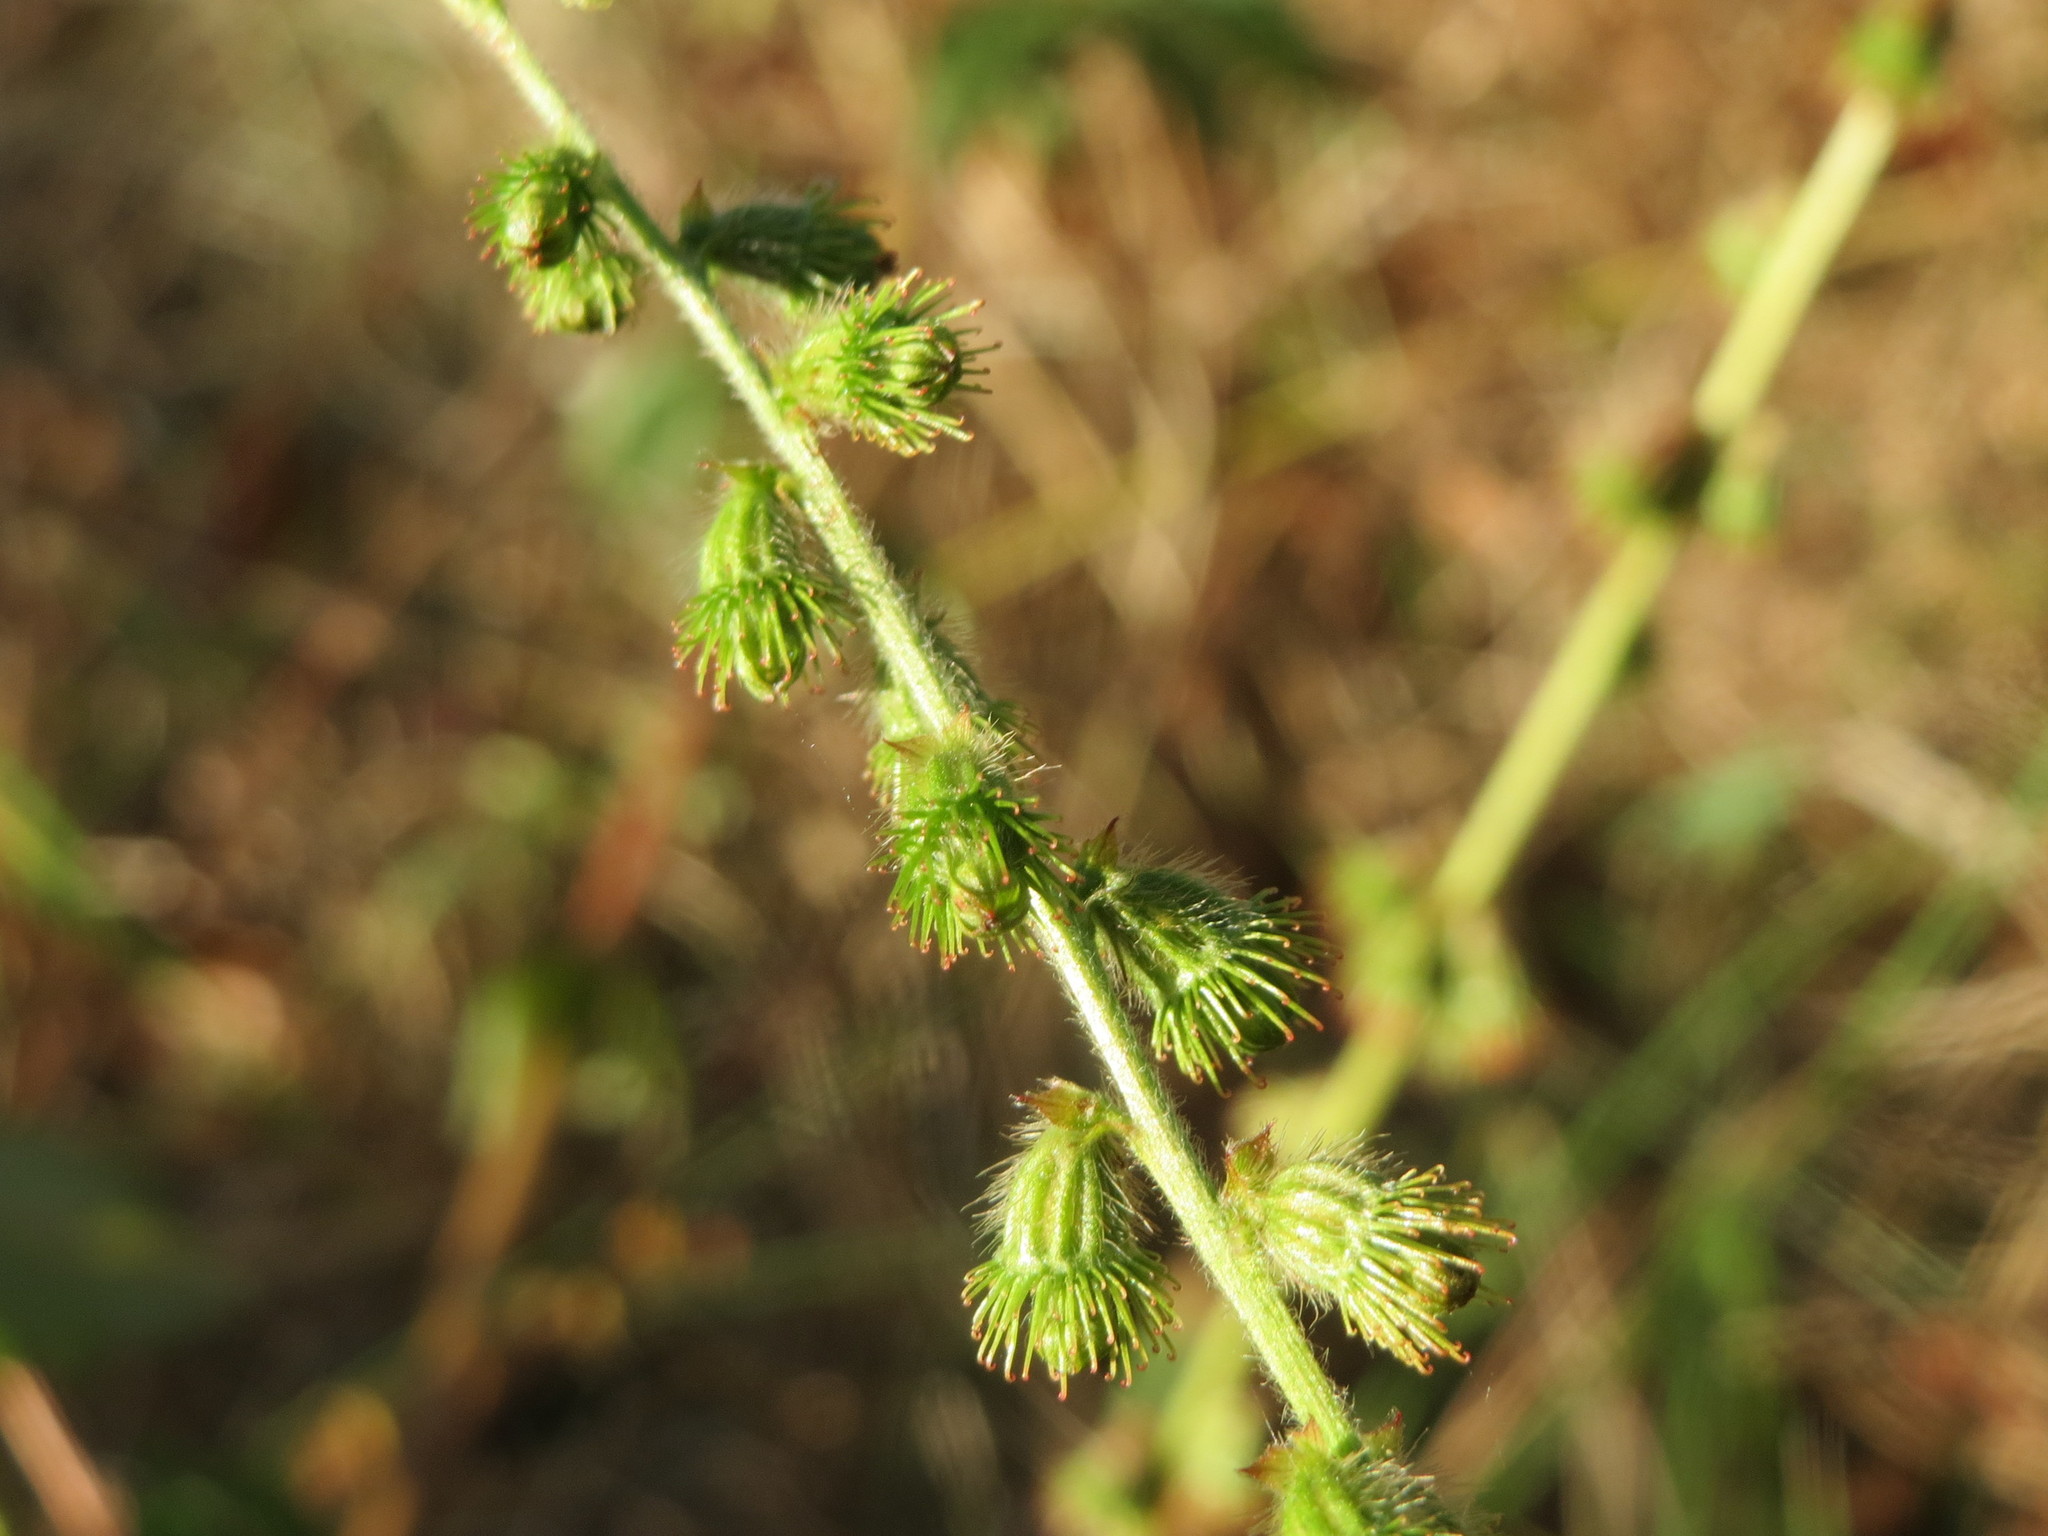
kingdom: Plantae
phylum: Tracheophyta
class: Magnoliopsida
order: Rosales
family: Rosaceae
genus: Agrimonia
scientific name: Agrimonia eupatoria
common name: Agrimony
